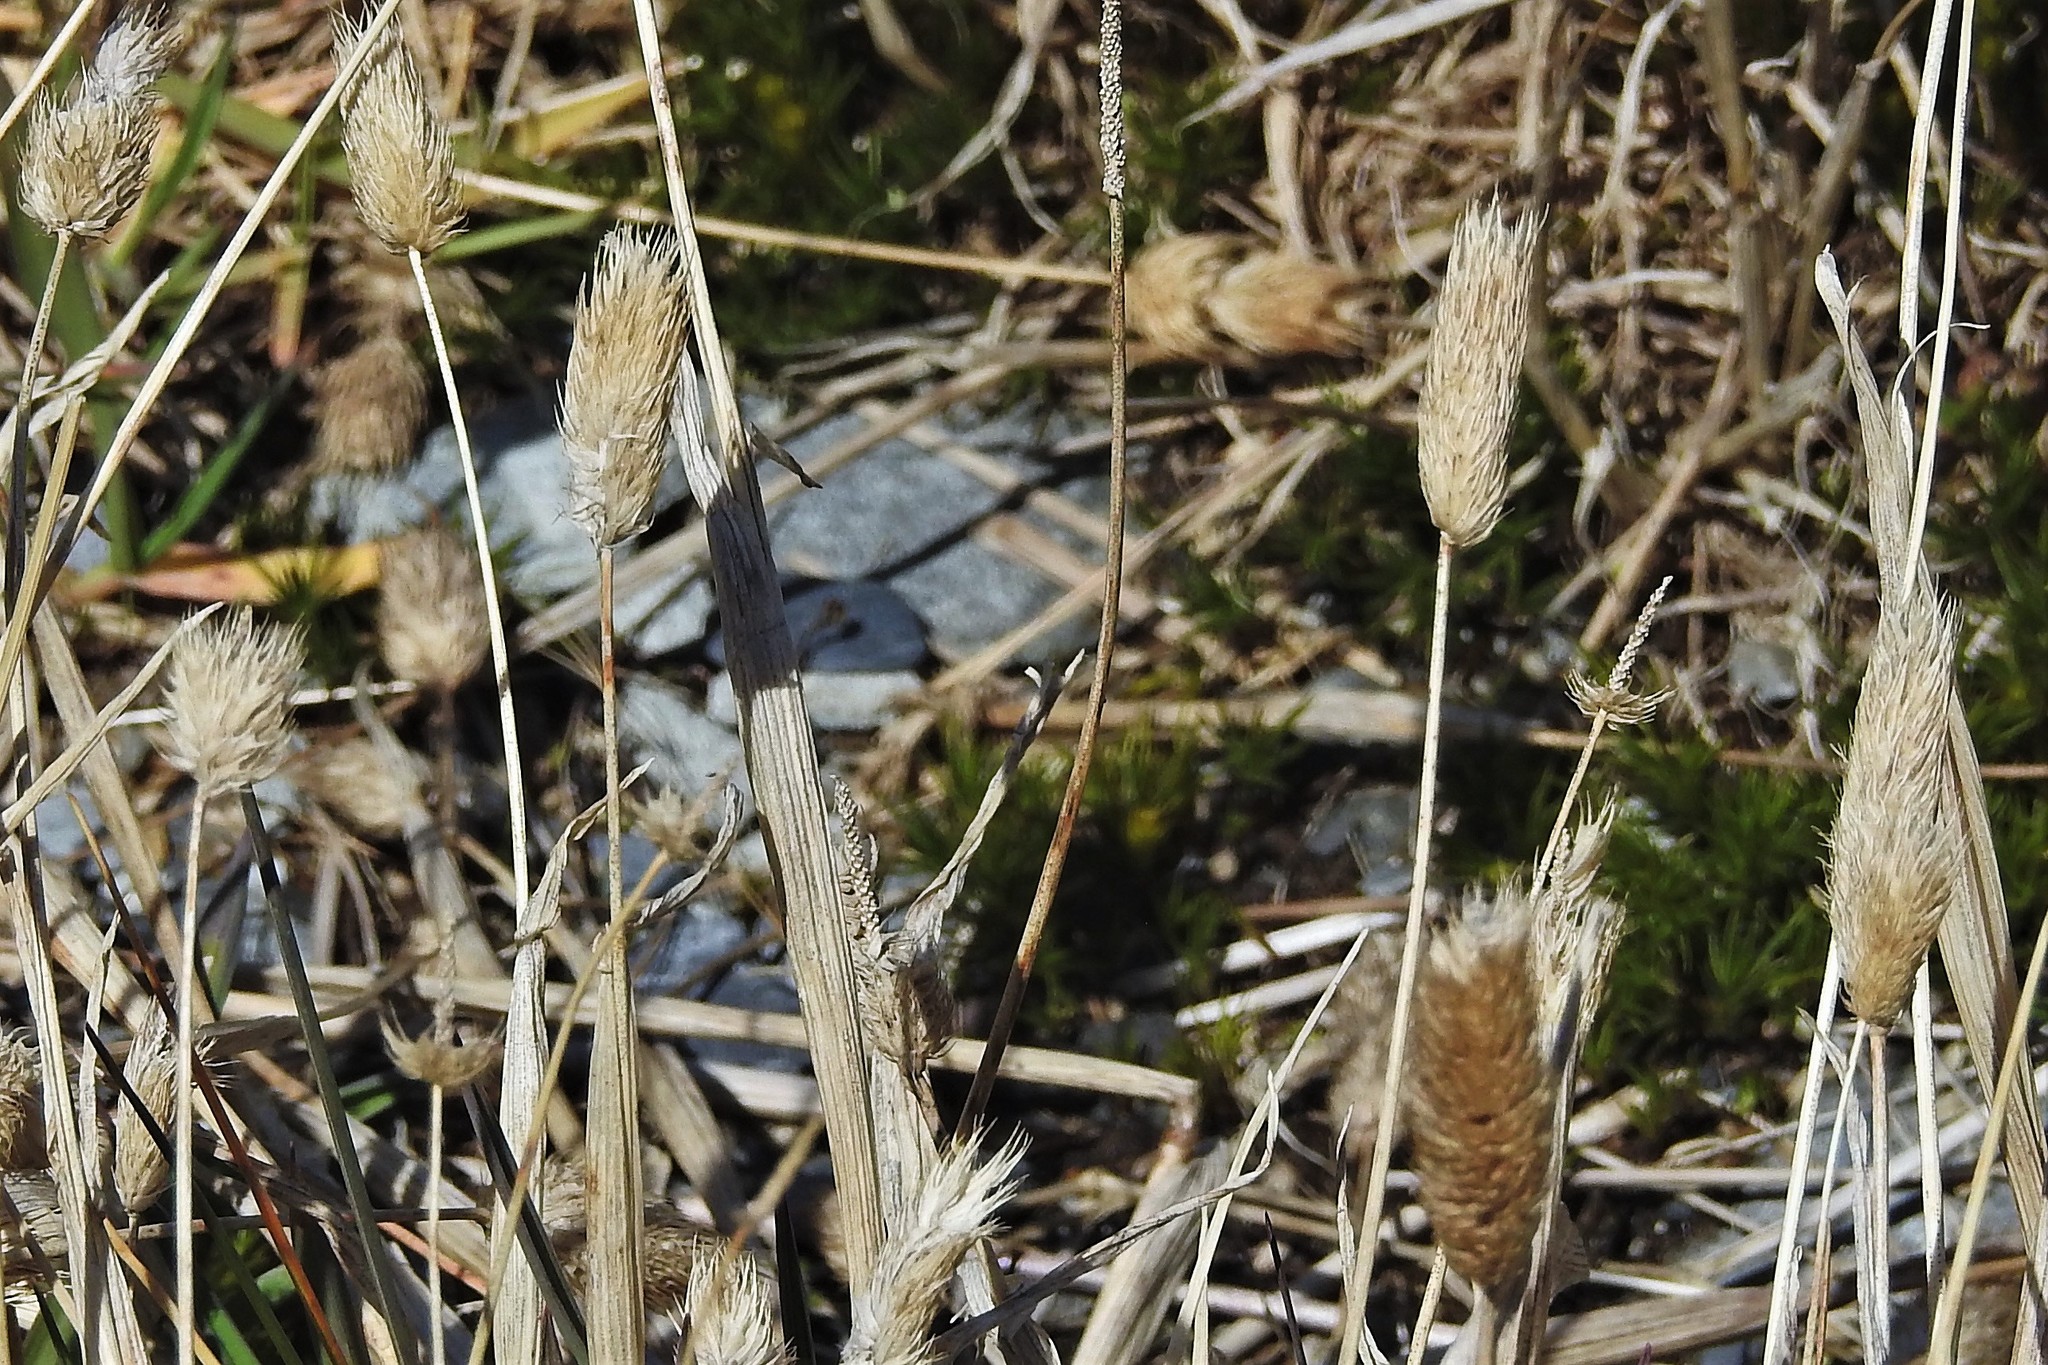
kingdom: Plantae
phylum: Tracheophyta
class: Liliopsida
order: Poales
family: Poaceae
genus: Phleum
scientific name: Phleum alpinum
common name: Alpine cat's-tail
